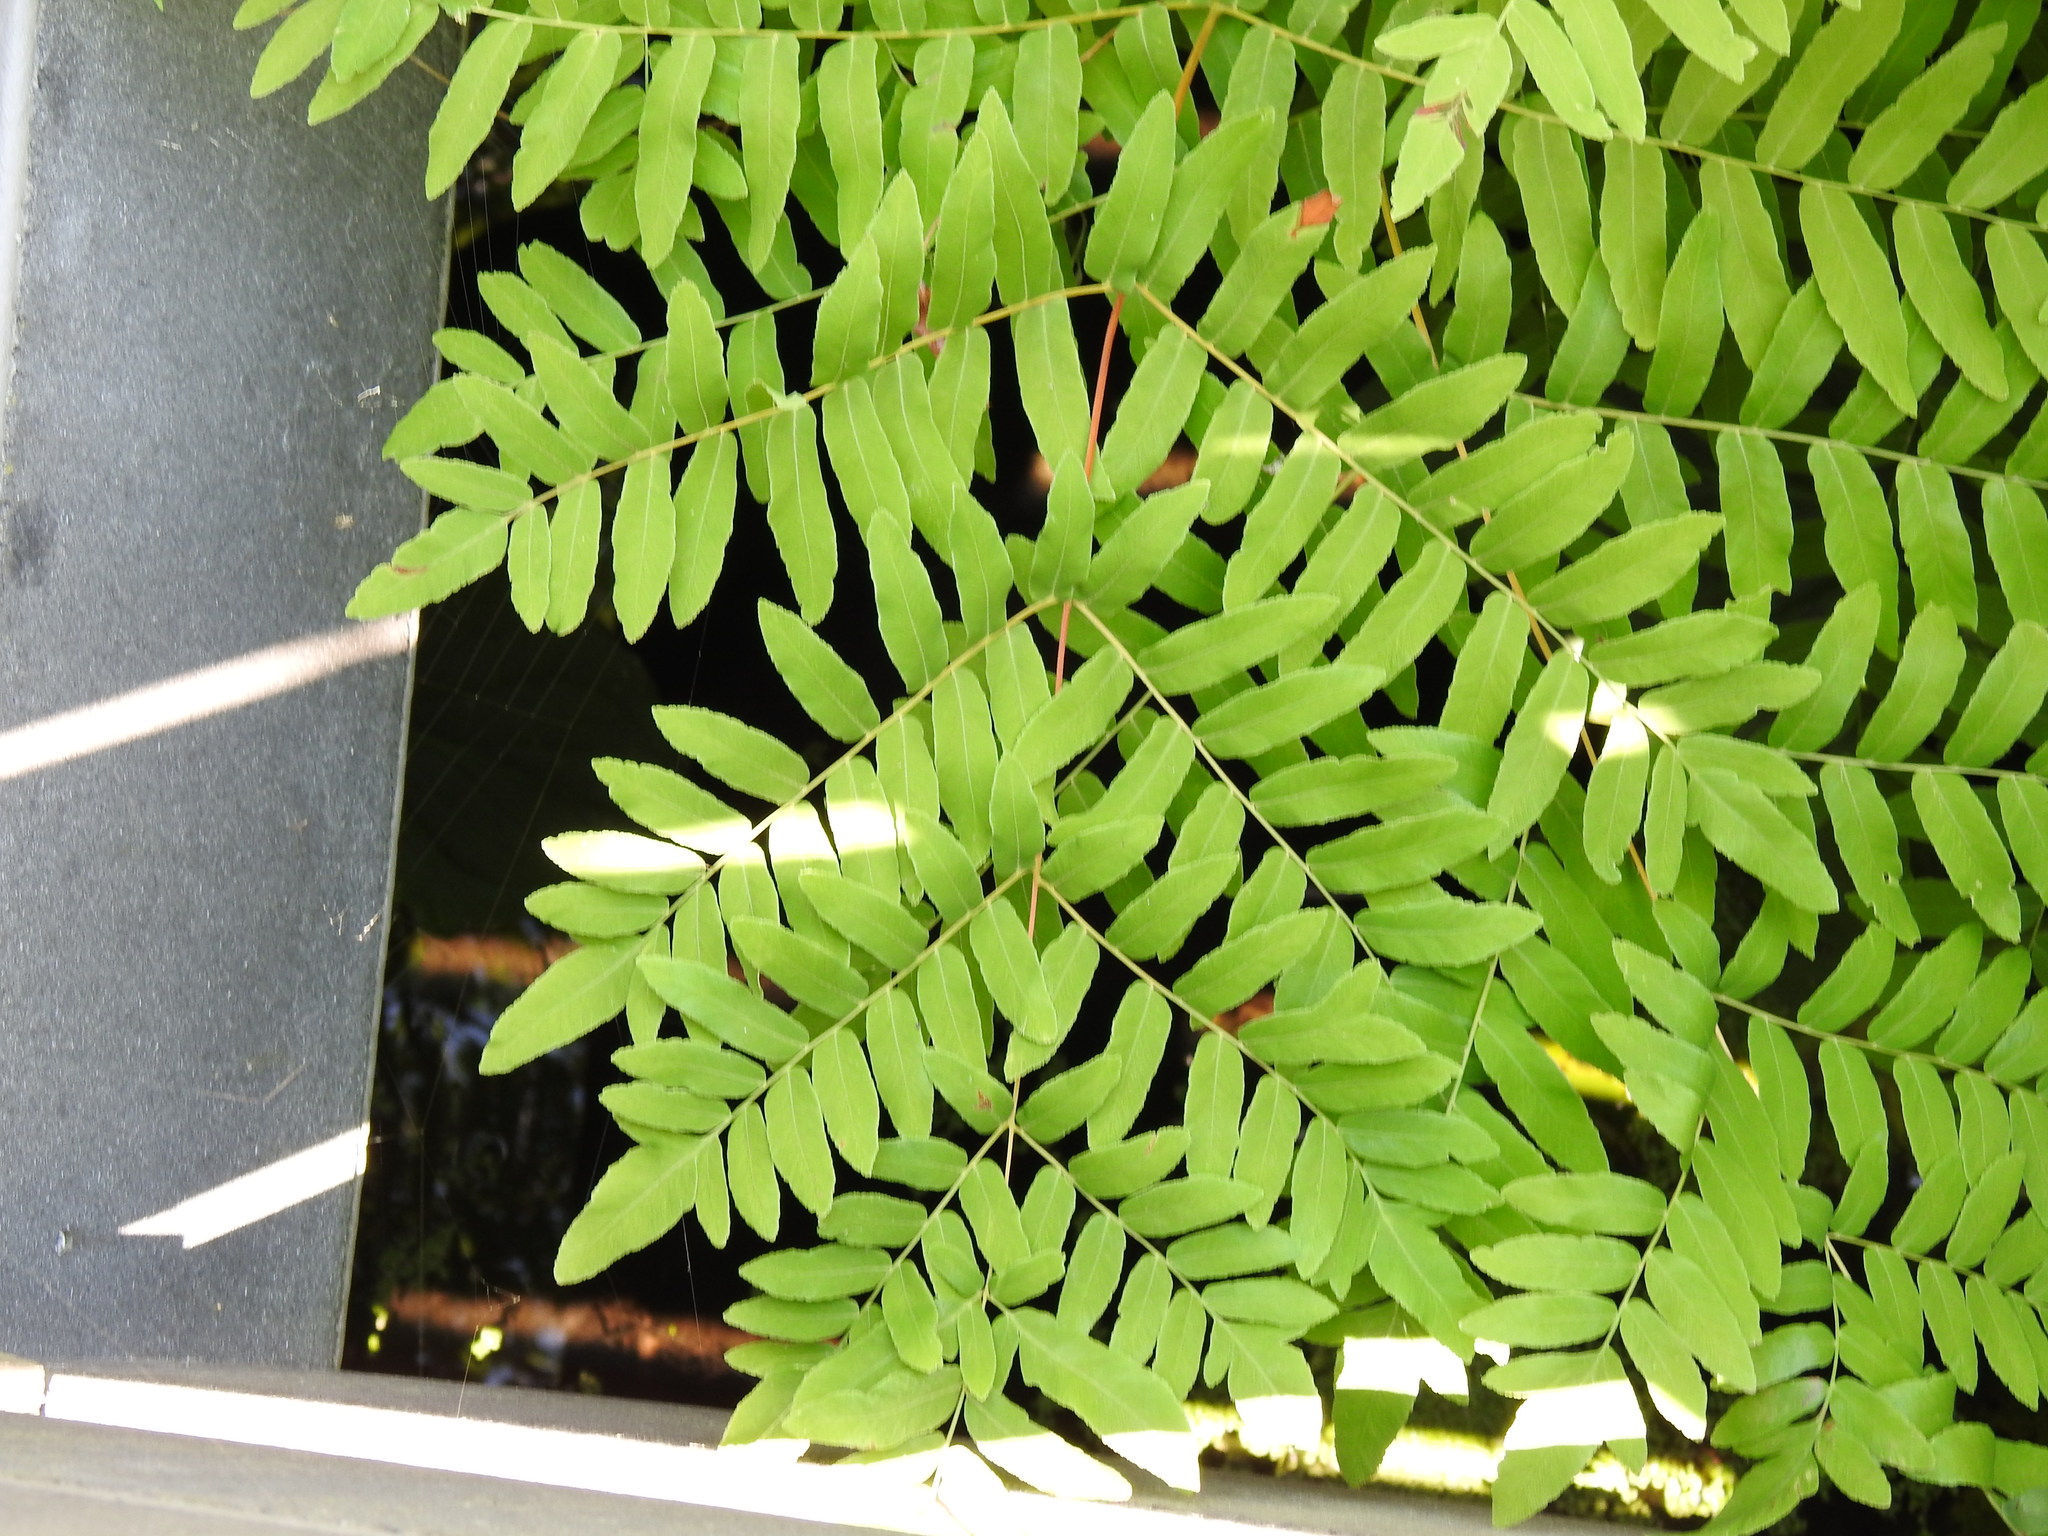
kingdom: Plantae
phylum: Tracheophyta
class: Polypodiopsida
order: Osmundales
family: Osmundaceae
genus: Osmunda
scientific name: Osmunda spectabilis
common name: American royal fern
